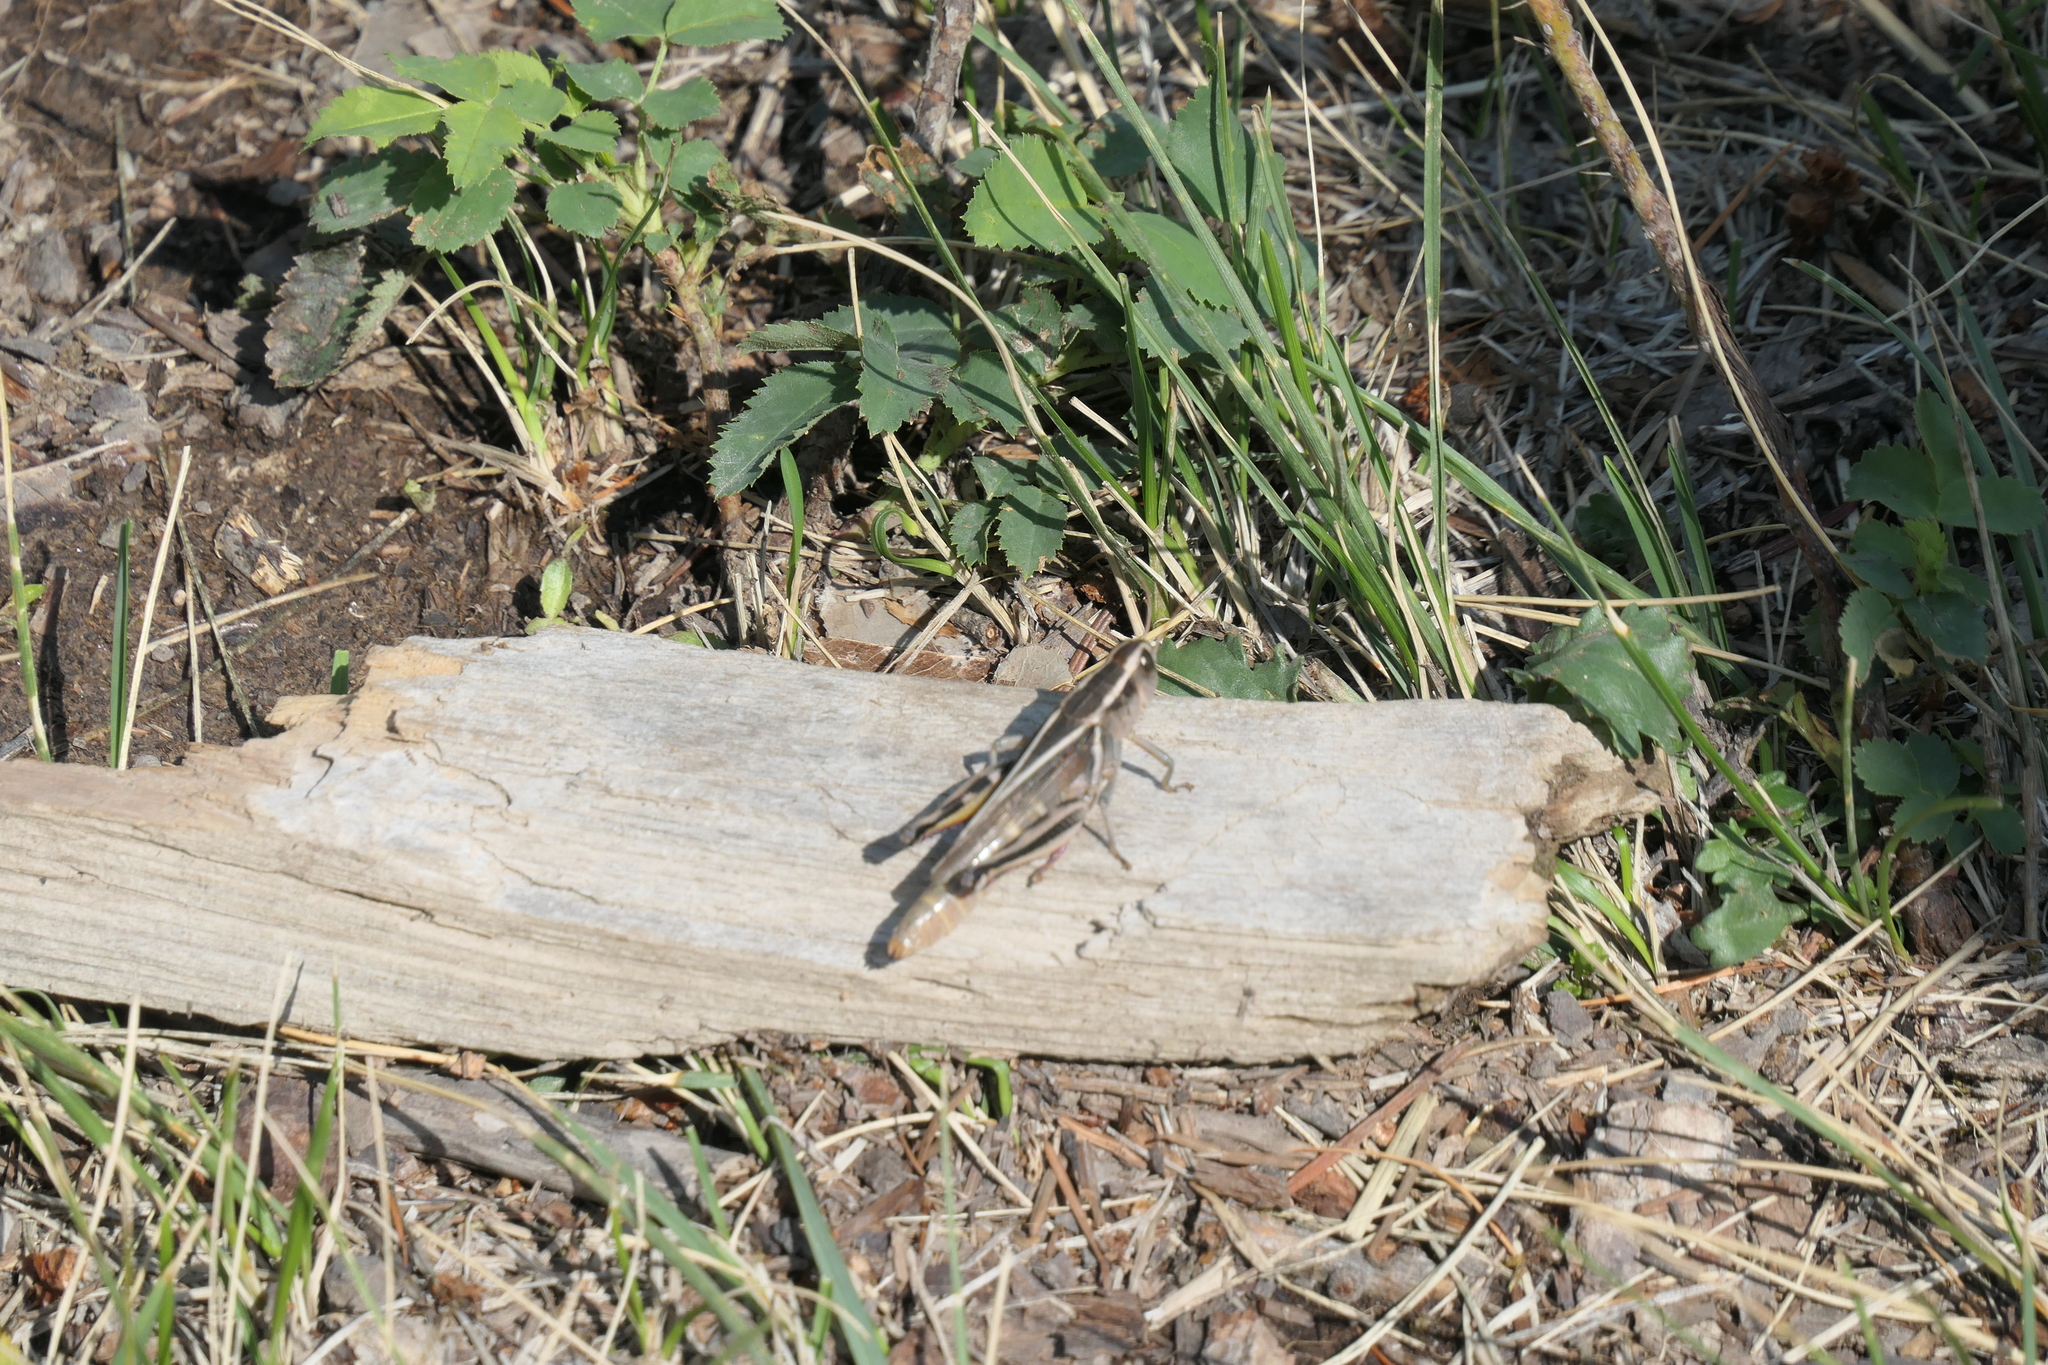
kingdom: Animalia
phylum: Arthropoda
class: Insecta
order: Orthoptera
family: Acrididae
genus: Melanoplus
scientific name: Melanoplus bivittatus
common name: Two-striped grasshopper
